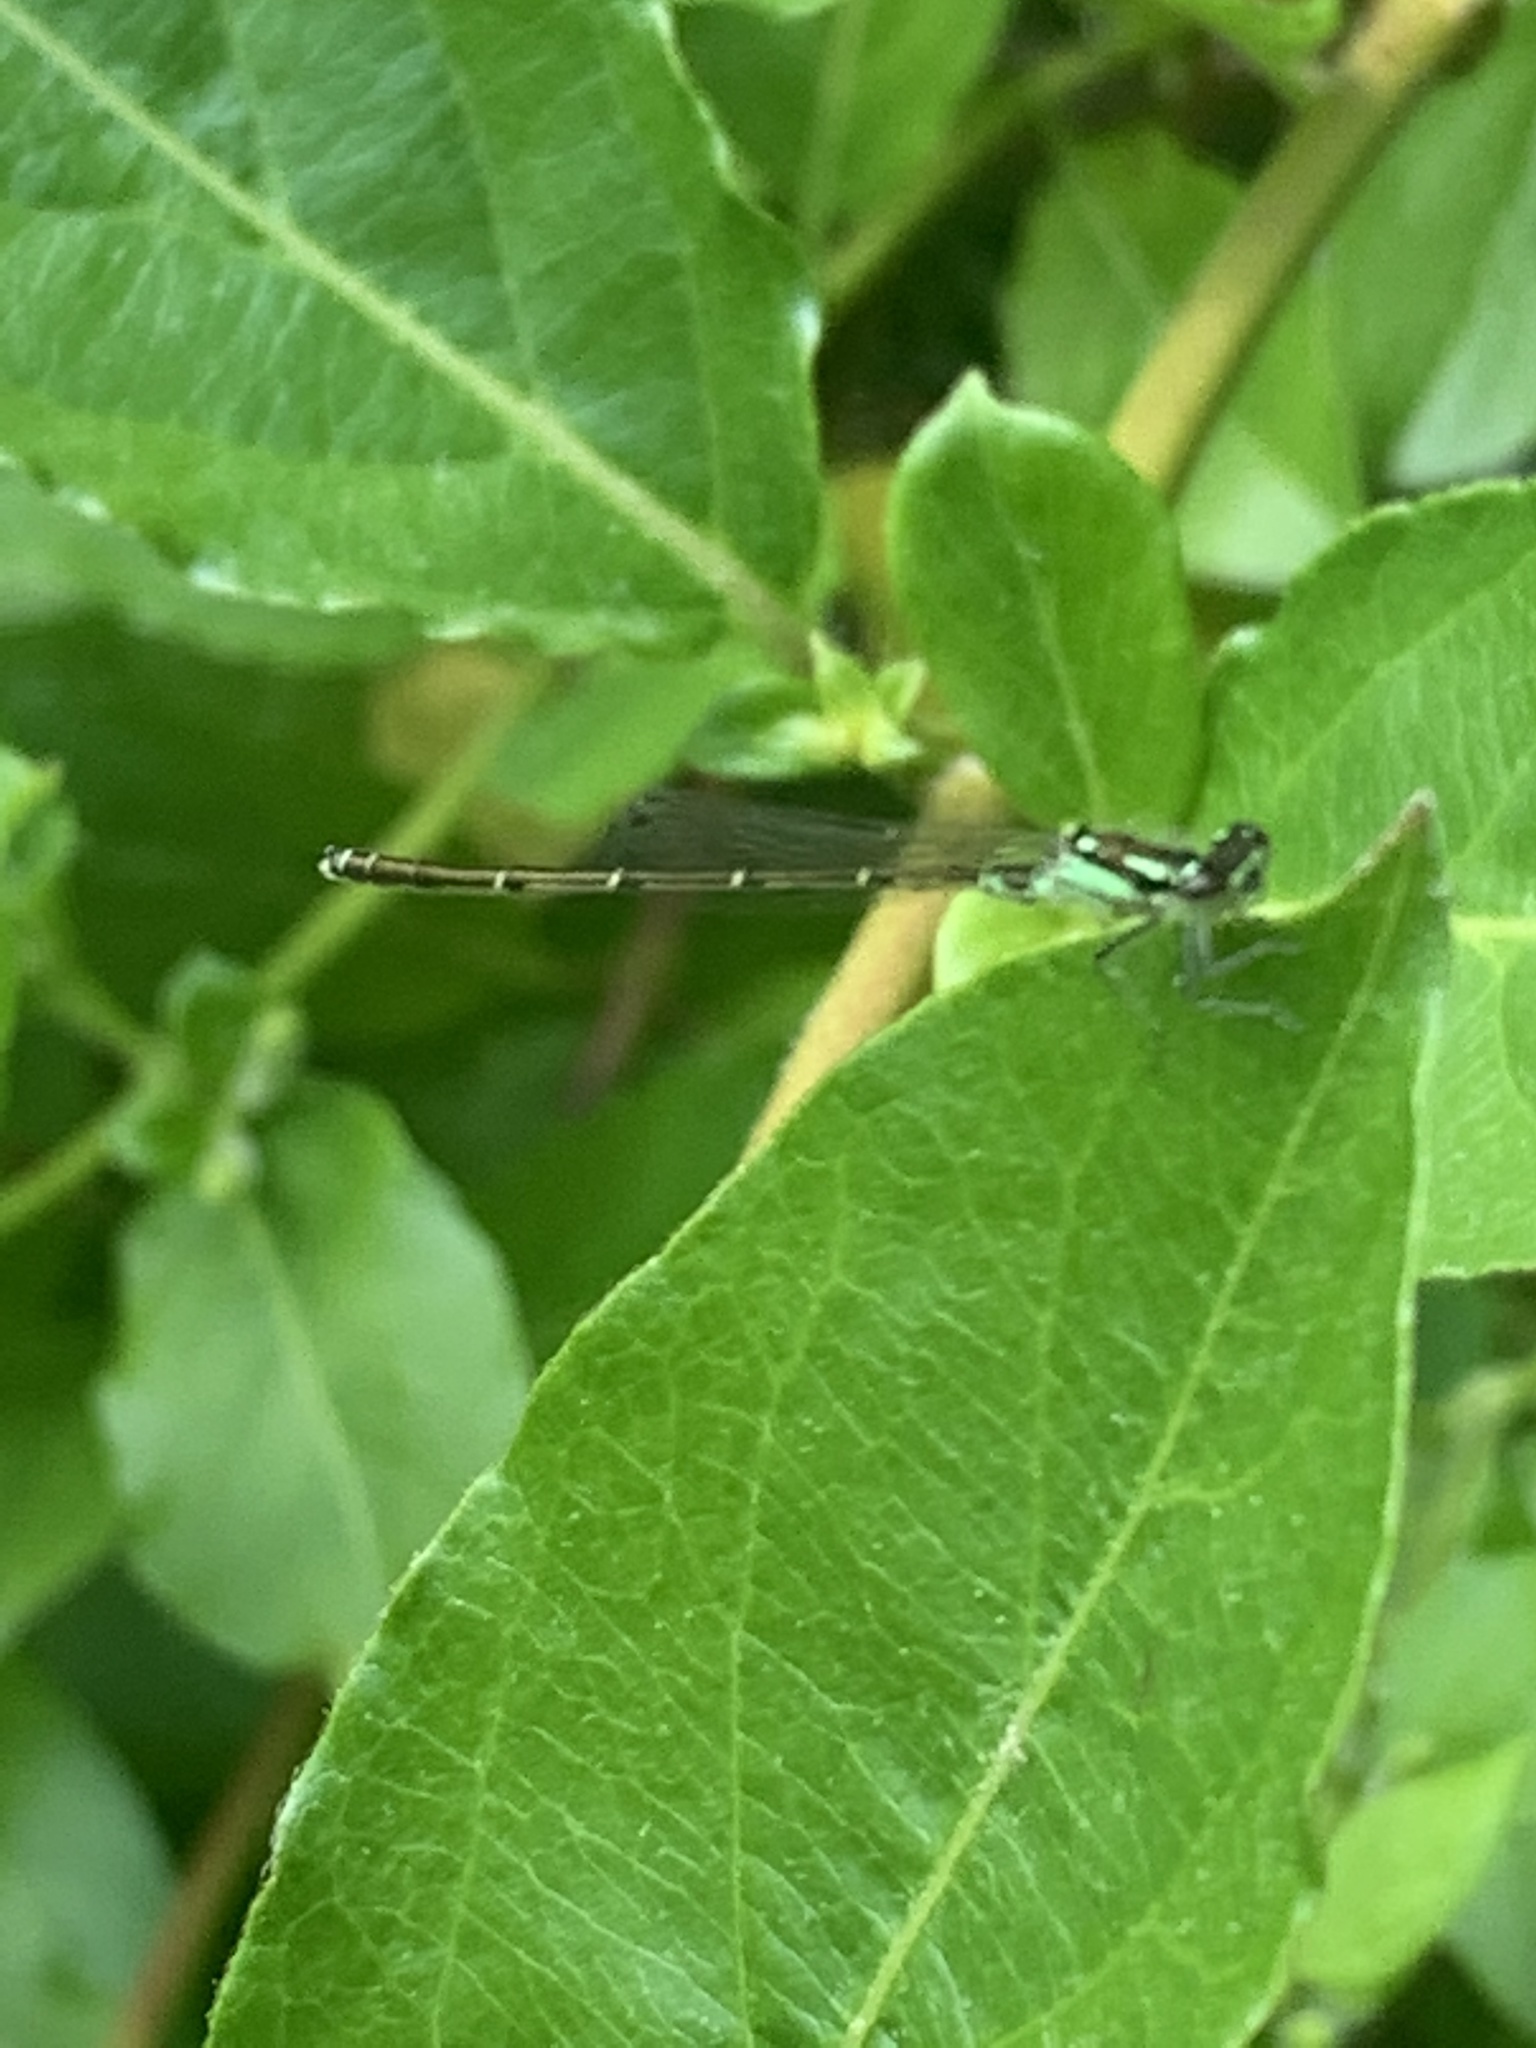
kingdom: Animalia
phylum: Arthropoda
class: Insecta
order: Odonata
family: Coenagrionidae
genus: Ischnura
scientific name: Ischnura posita
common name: Fragile forktail
